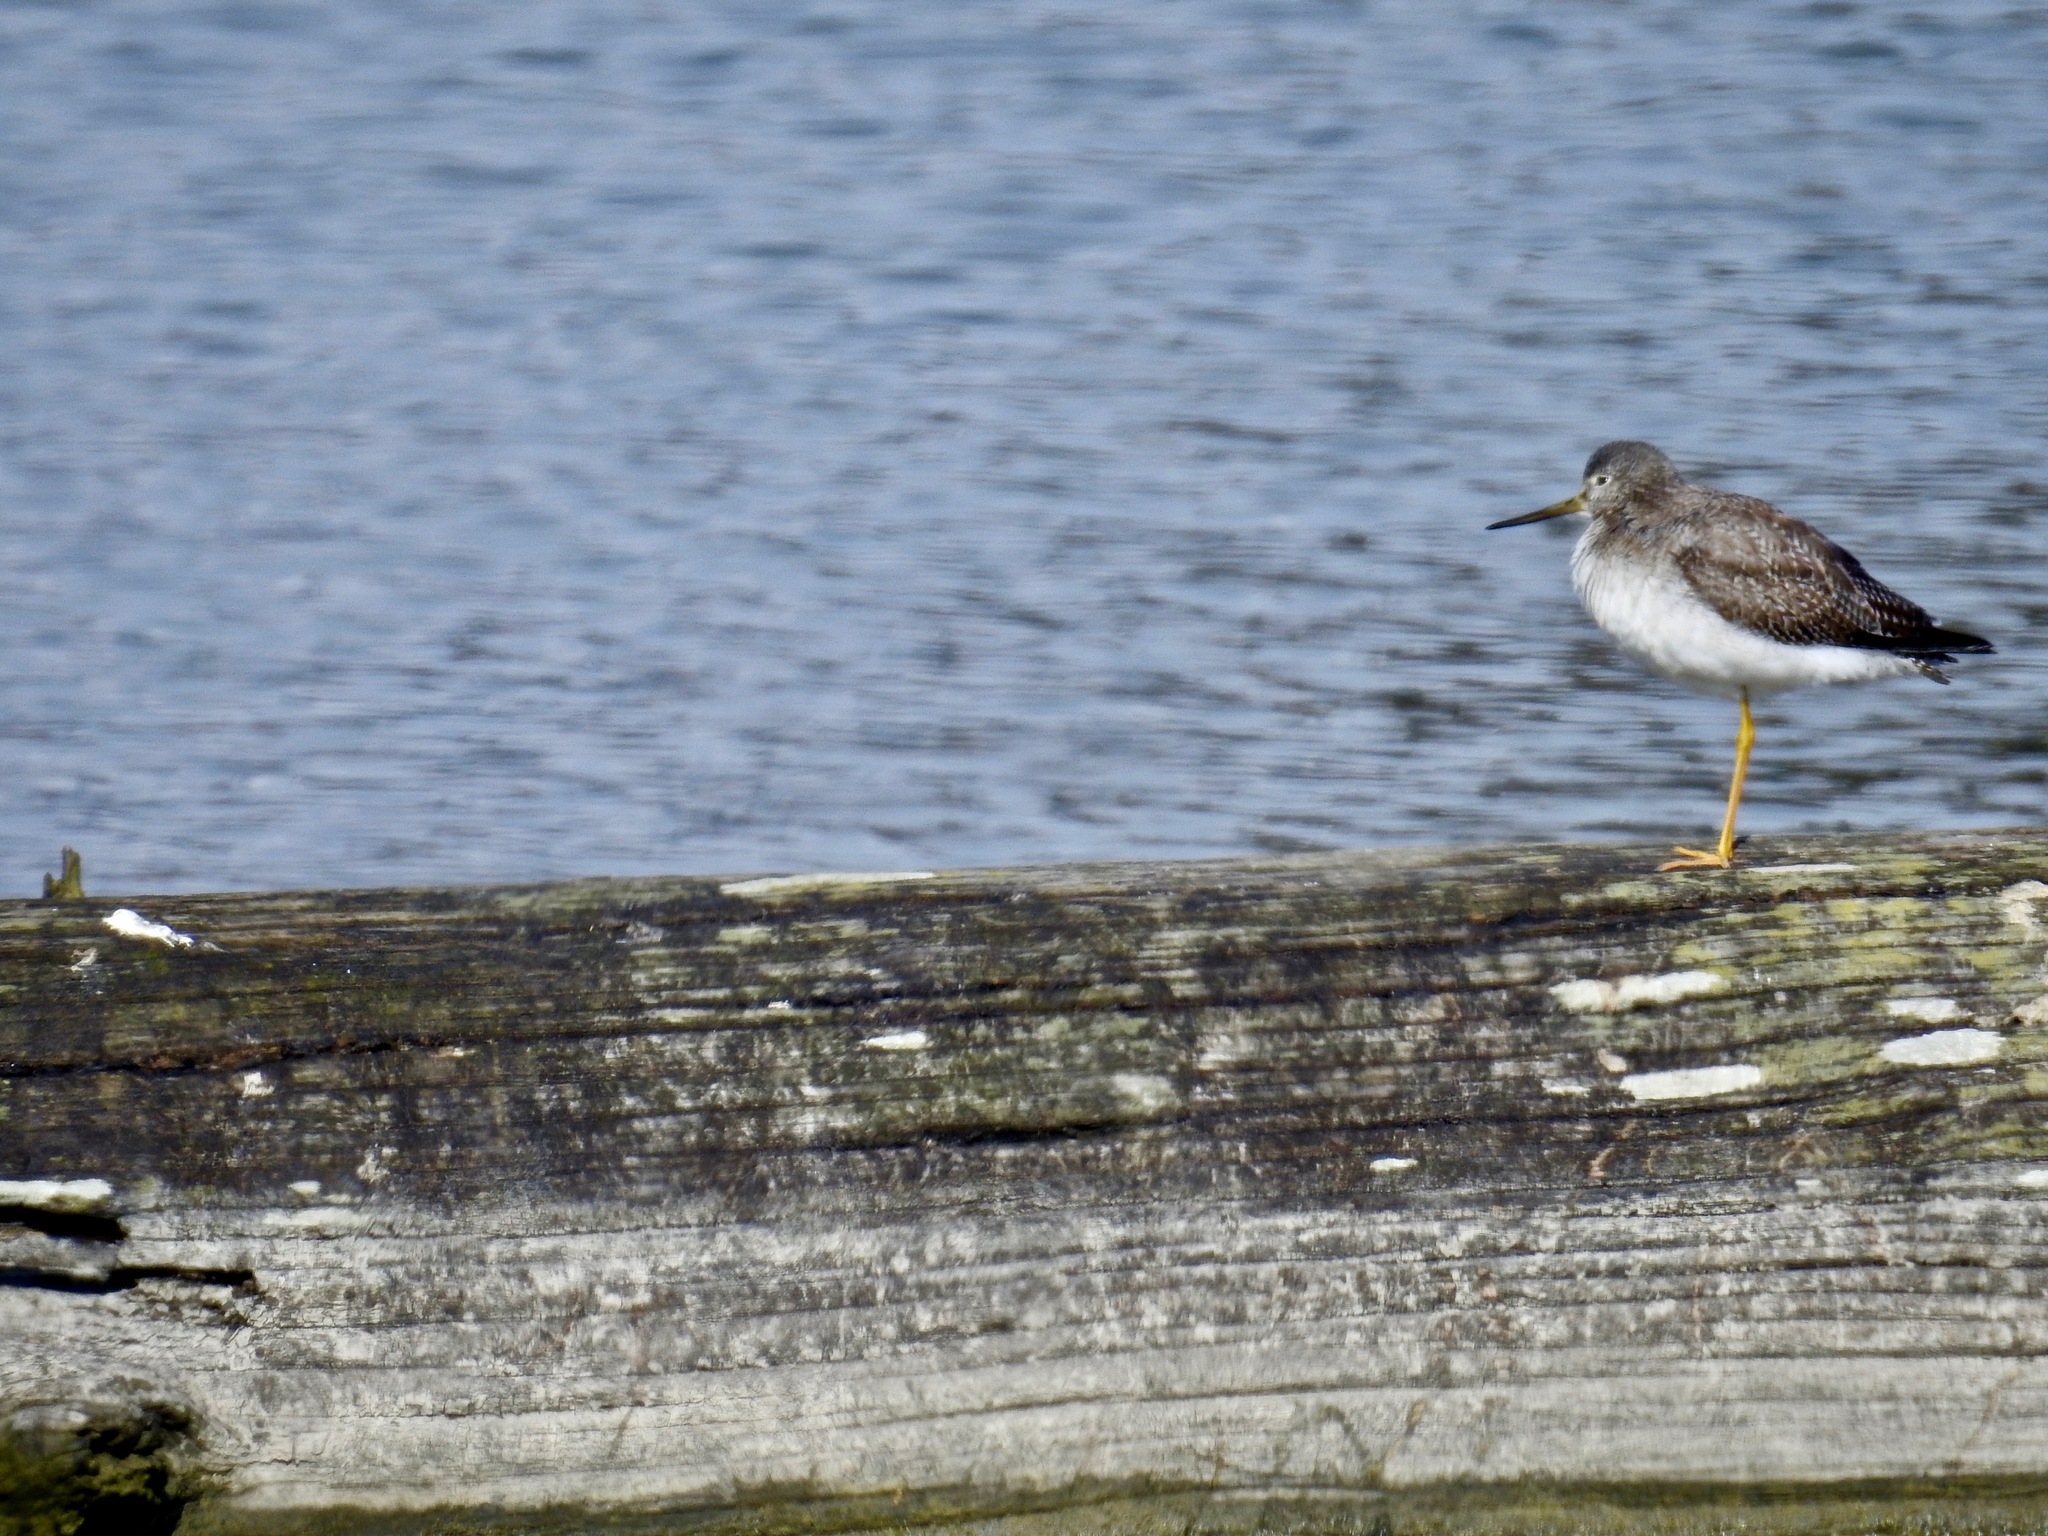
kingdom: Animalia
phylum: Chordata
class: Aves
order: Charadriiformes
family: Scolopacidae
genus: Tringa
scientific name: Tringa melanoleuca
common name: Greater yellowlegs
